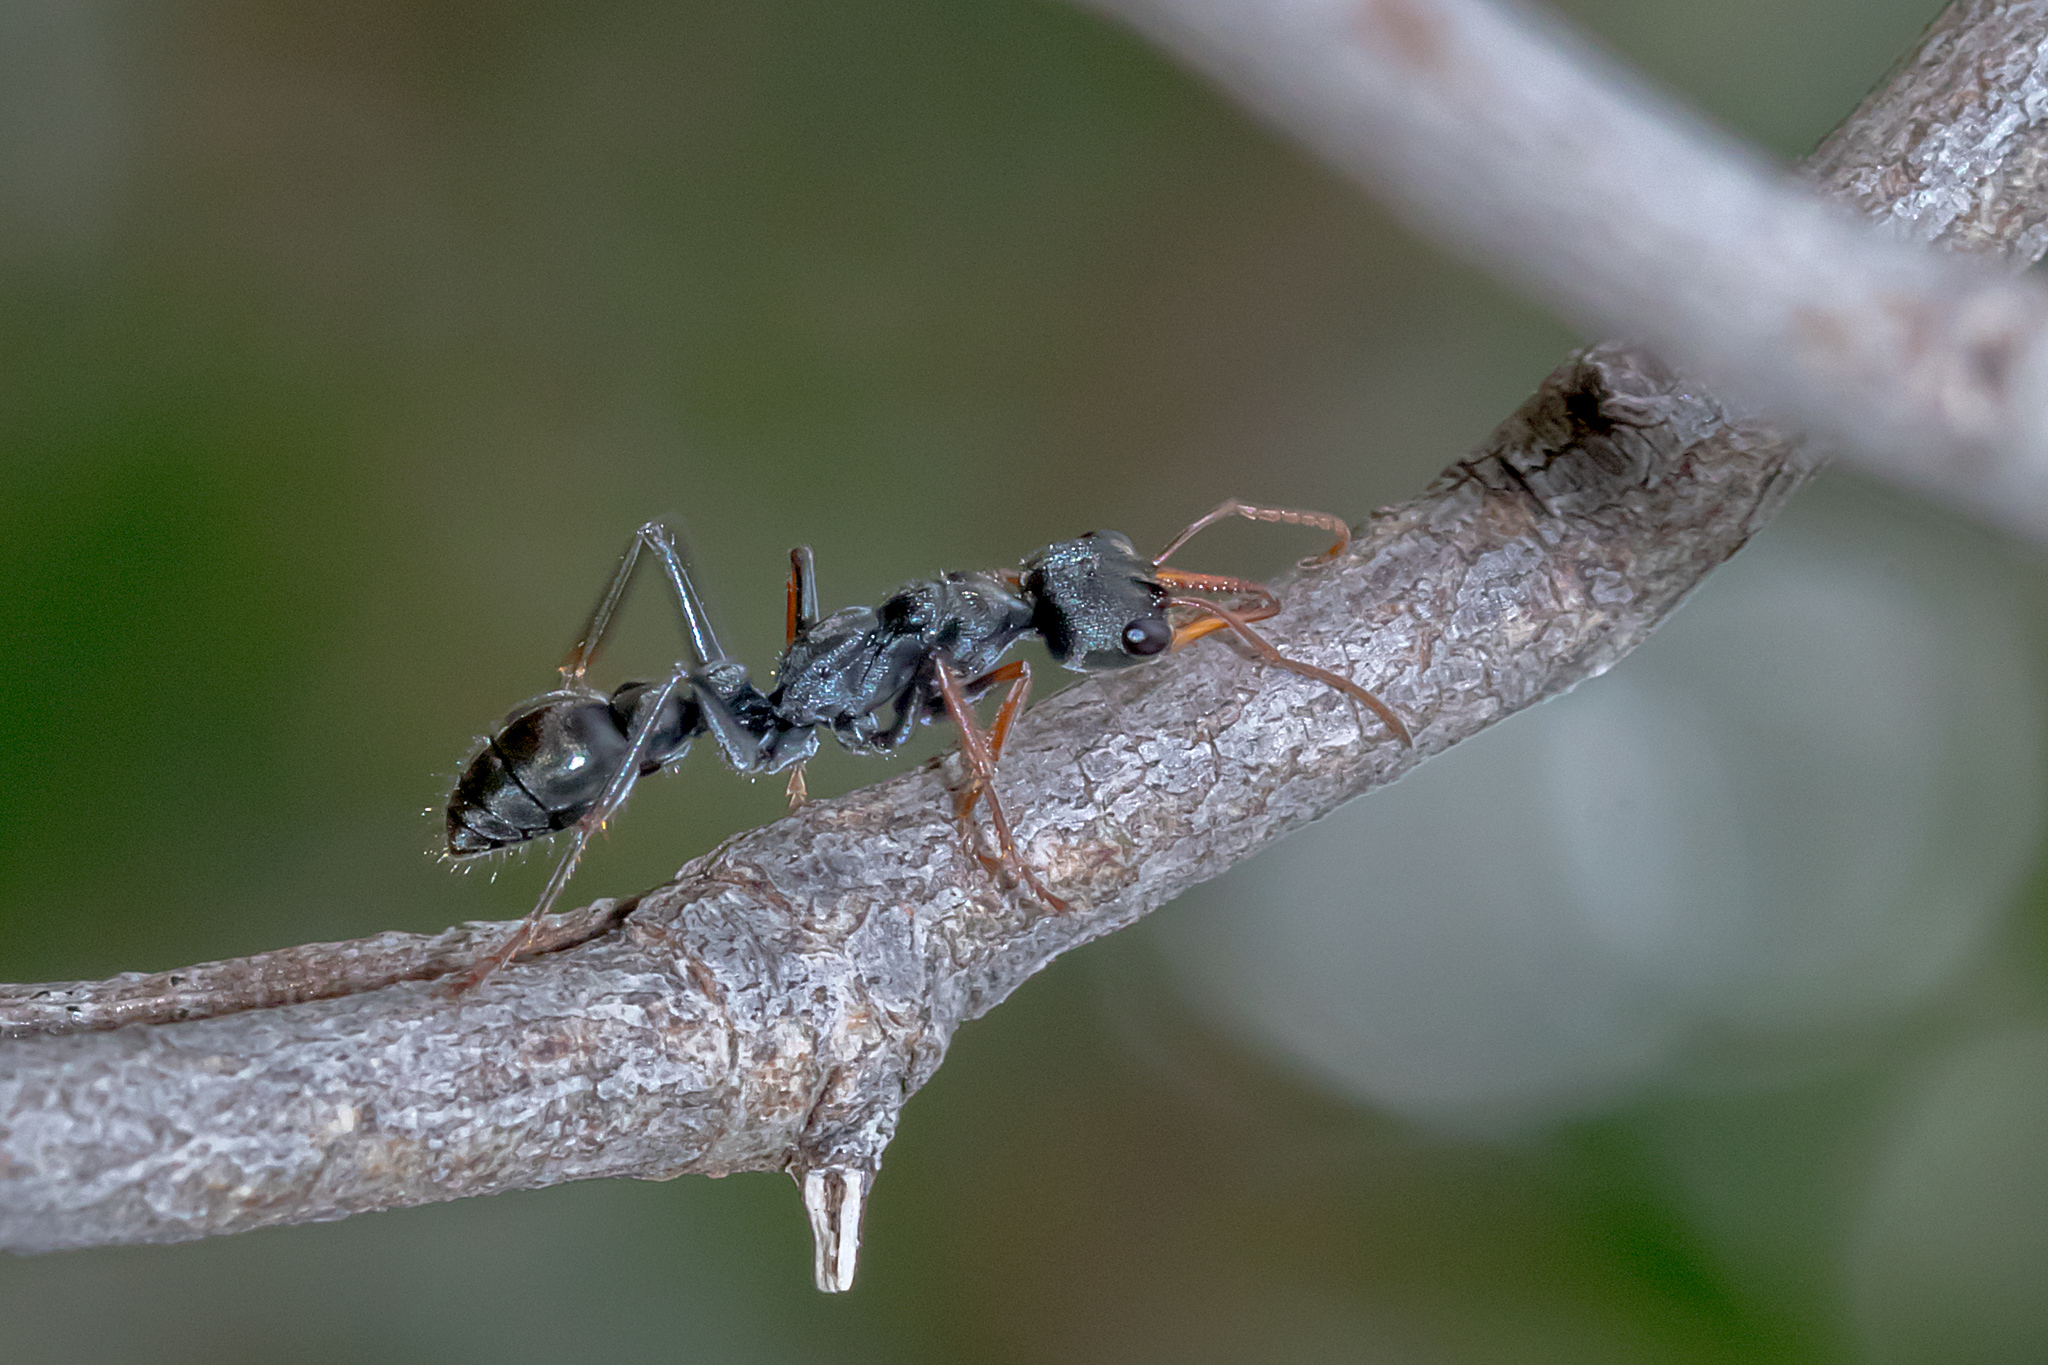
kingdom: Animalia
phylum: Arthropoda
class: Insecta
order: Hymenoptera
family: Formicidae
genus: Myrmecia
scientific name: Myrmecia pilosula
